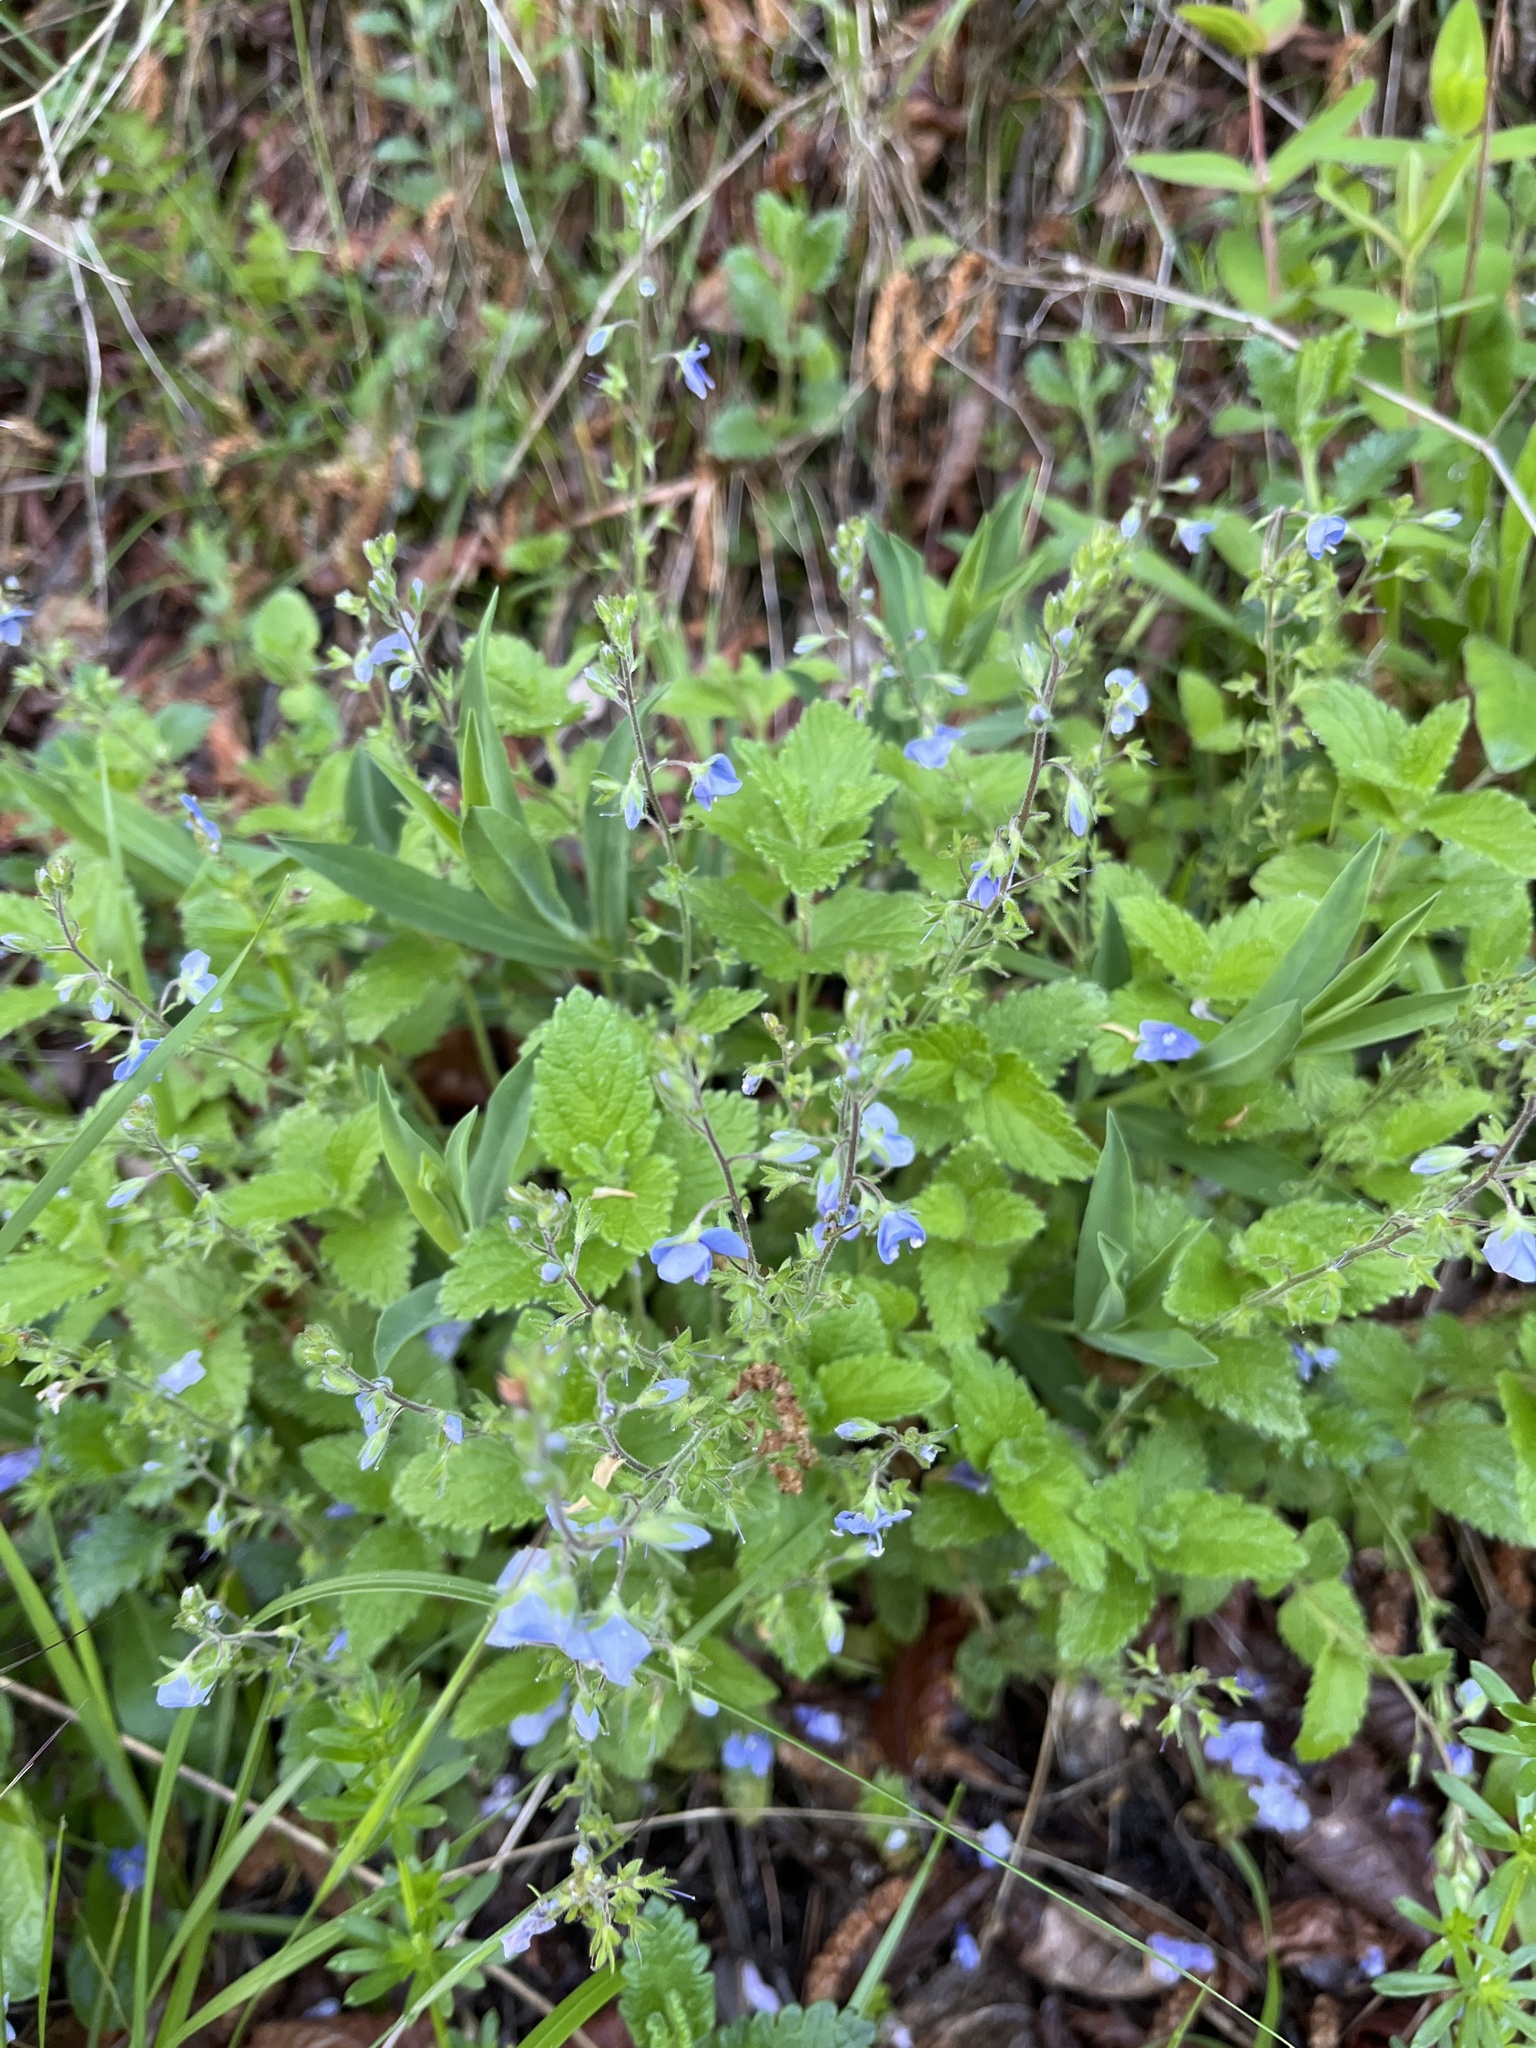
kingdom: Plantae
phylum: Tracheophyta
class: Magnoliopsida
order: Lamiales
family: Plantaginaceae
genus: Veronica
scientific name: Veronica chamaedrys
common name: Germander speedwell
